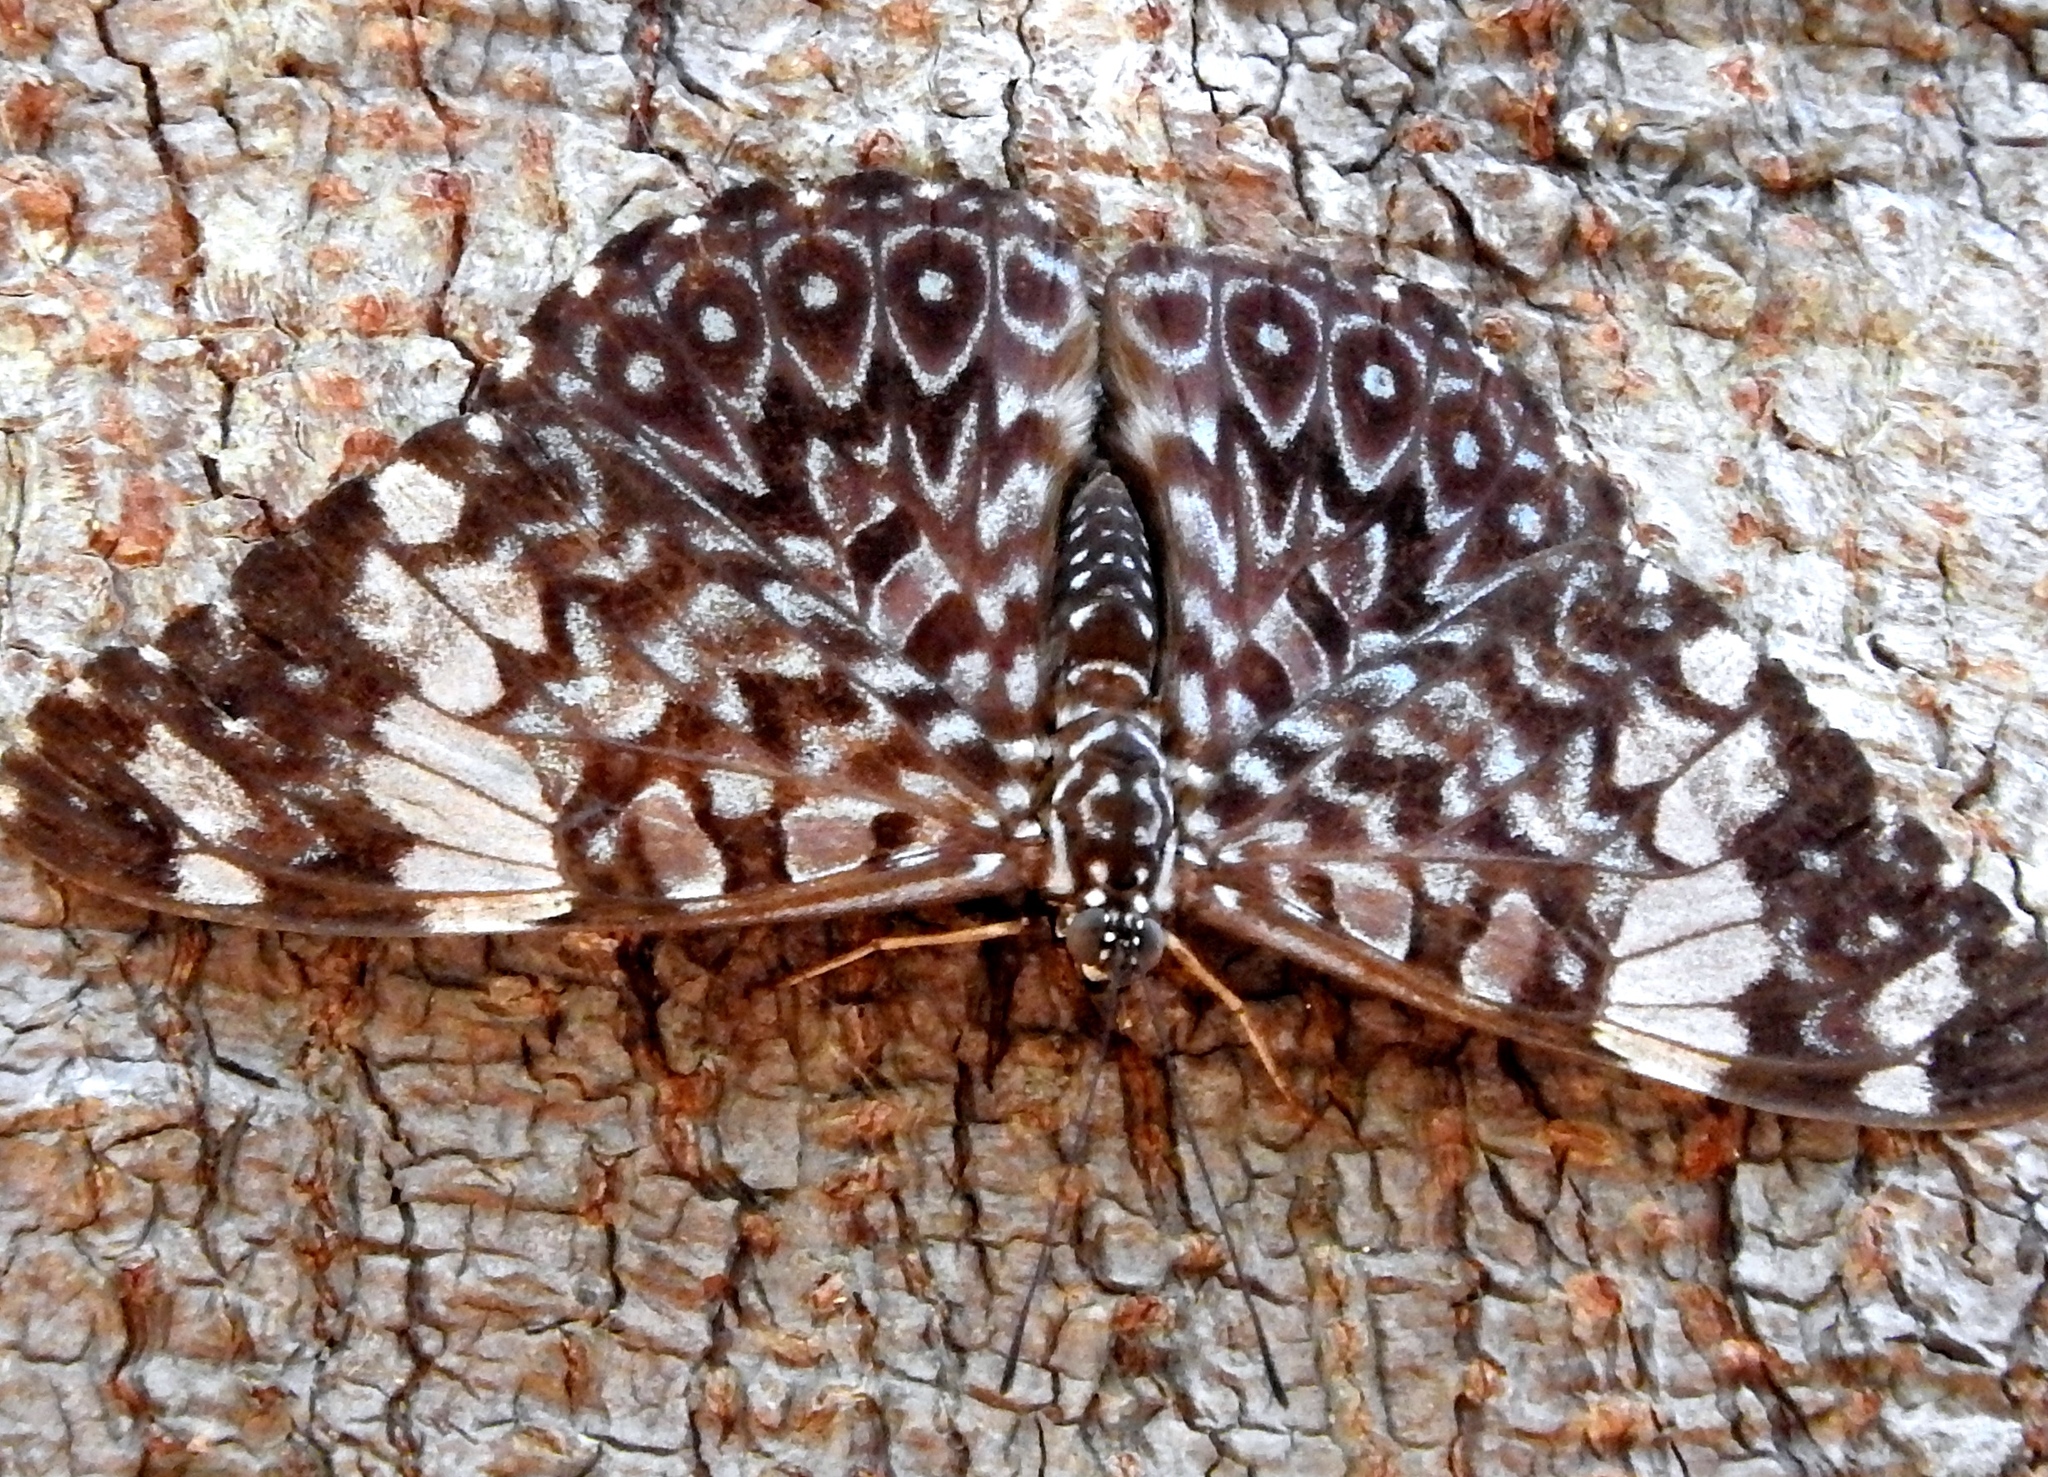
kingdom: Animalia
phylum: Arthropoda
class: Insecta
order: Lepidoptera
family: Nymphalidae
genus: Hamadryas
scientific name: Hamadryas amphinome
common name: Red cracker
